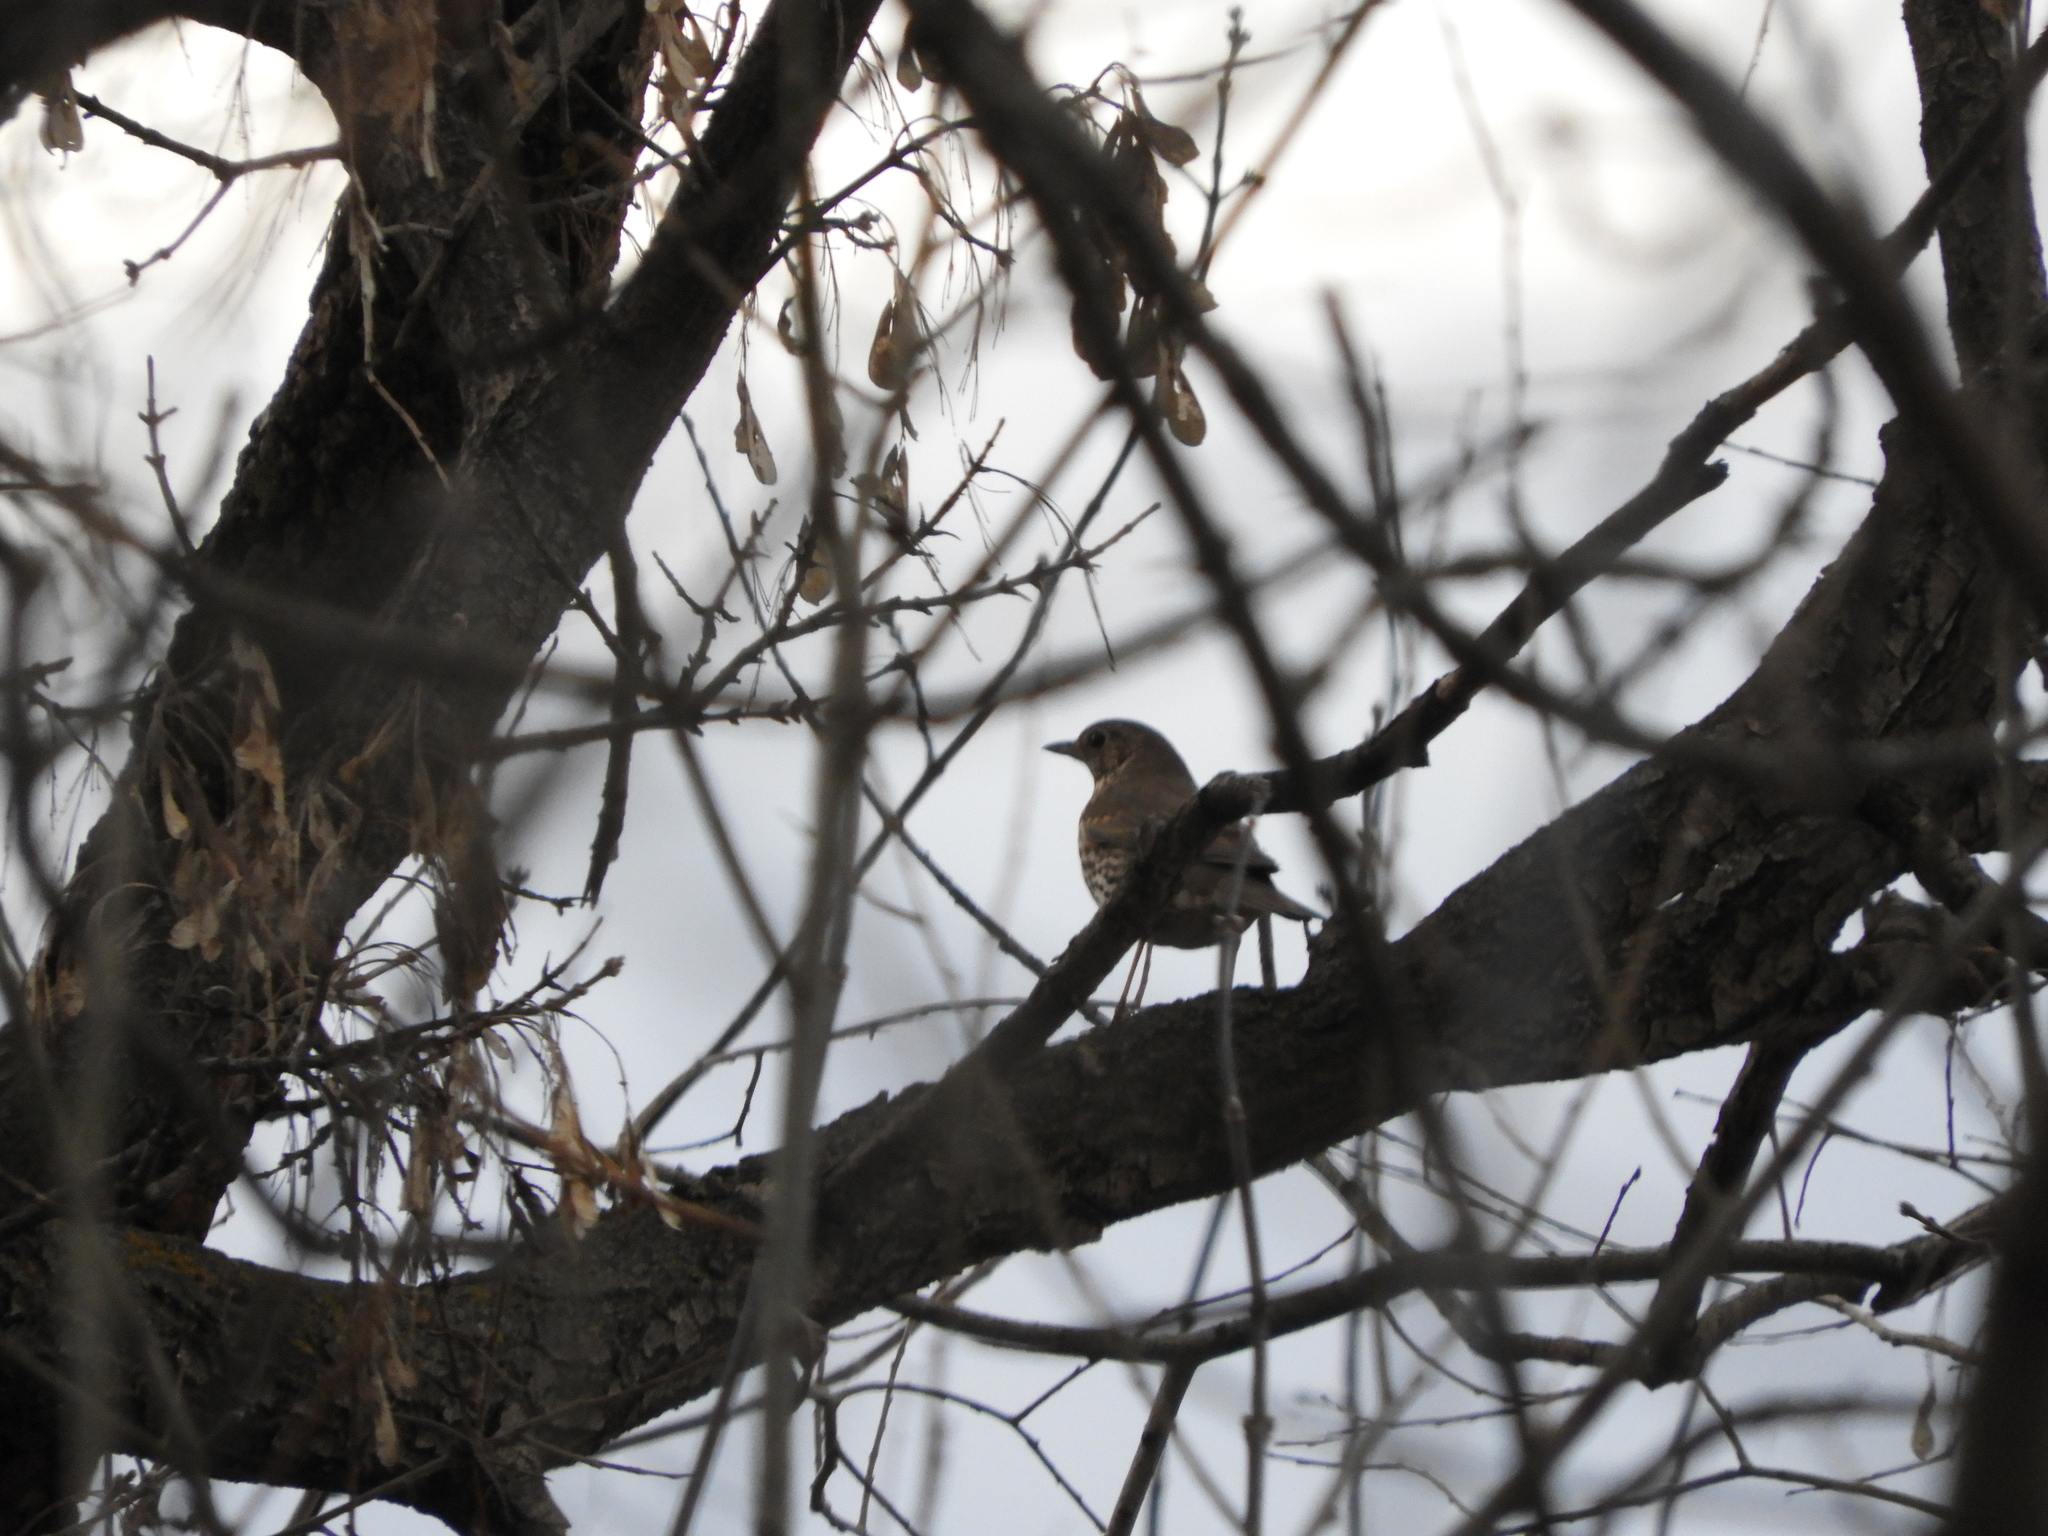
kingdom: Animalia
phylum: Chordata
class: Aves
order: Passeriformes
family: Turdidae
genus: Turdus
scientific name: Turdus philomelos
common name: Song thrush
